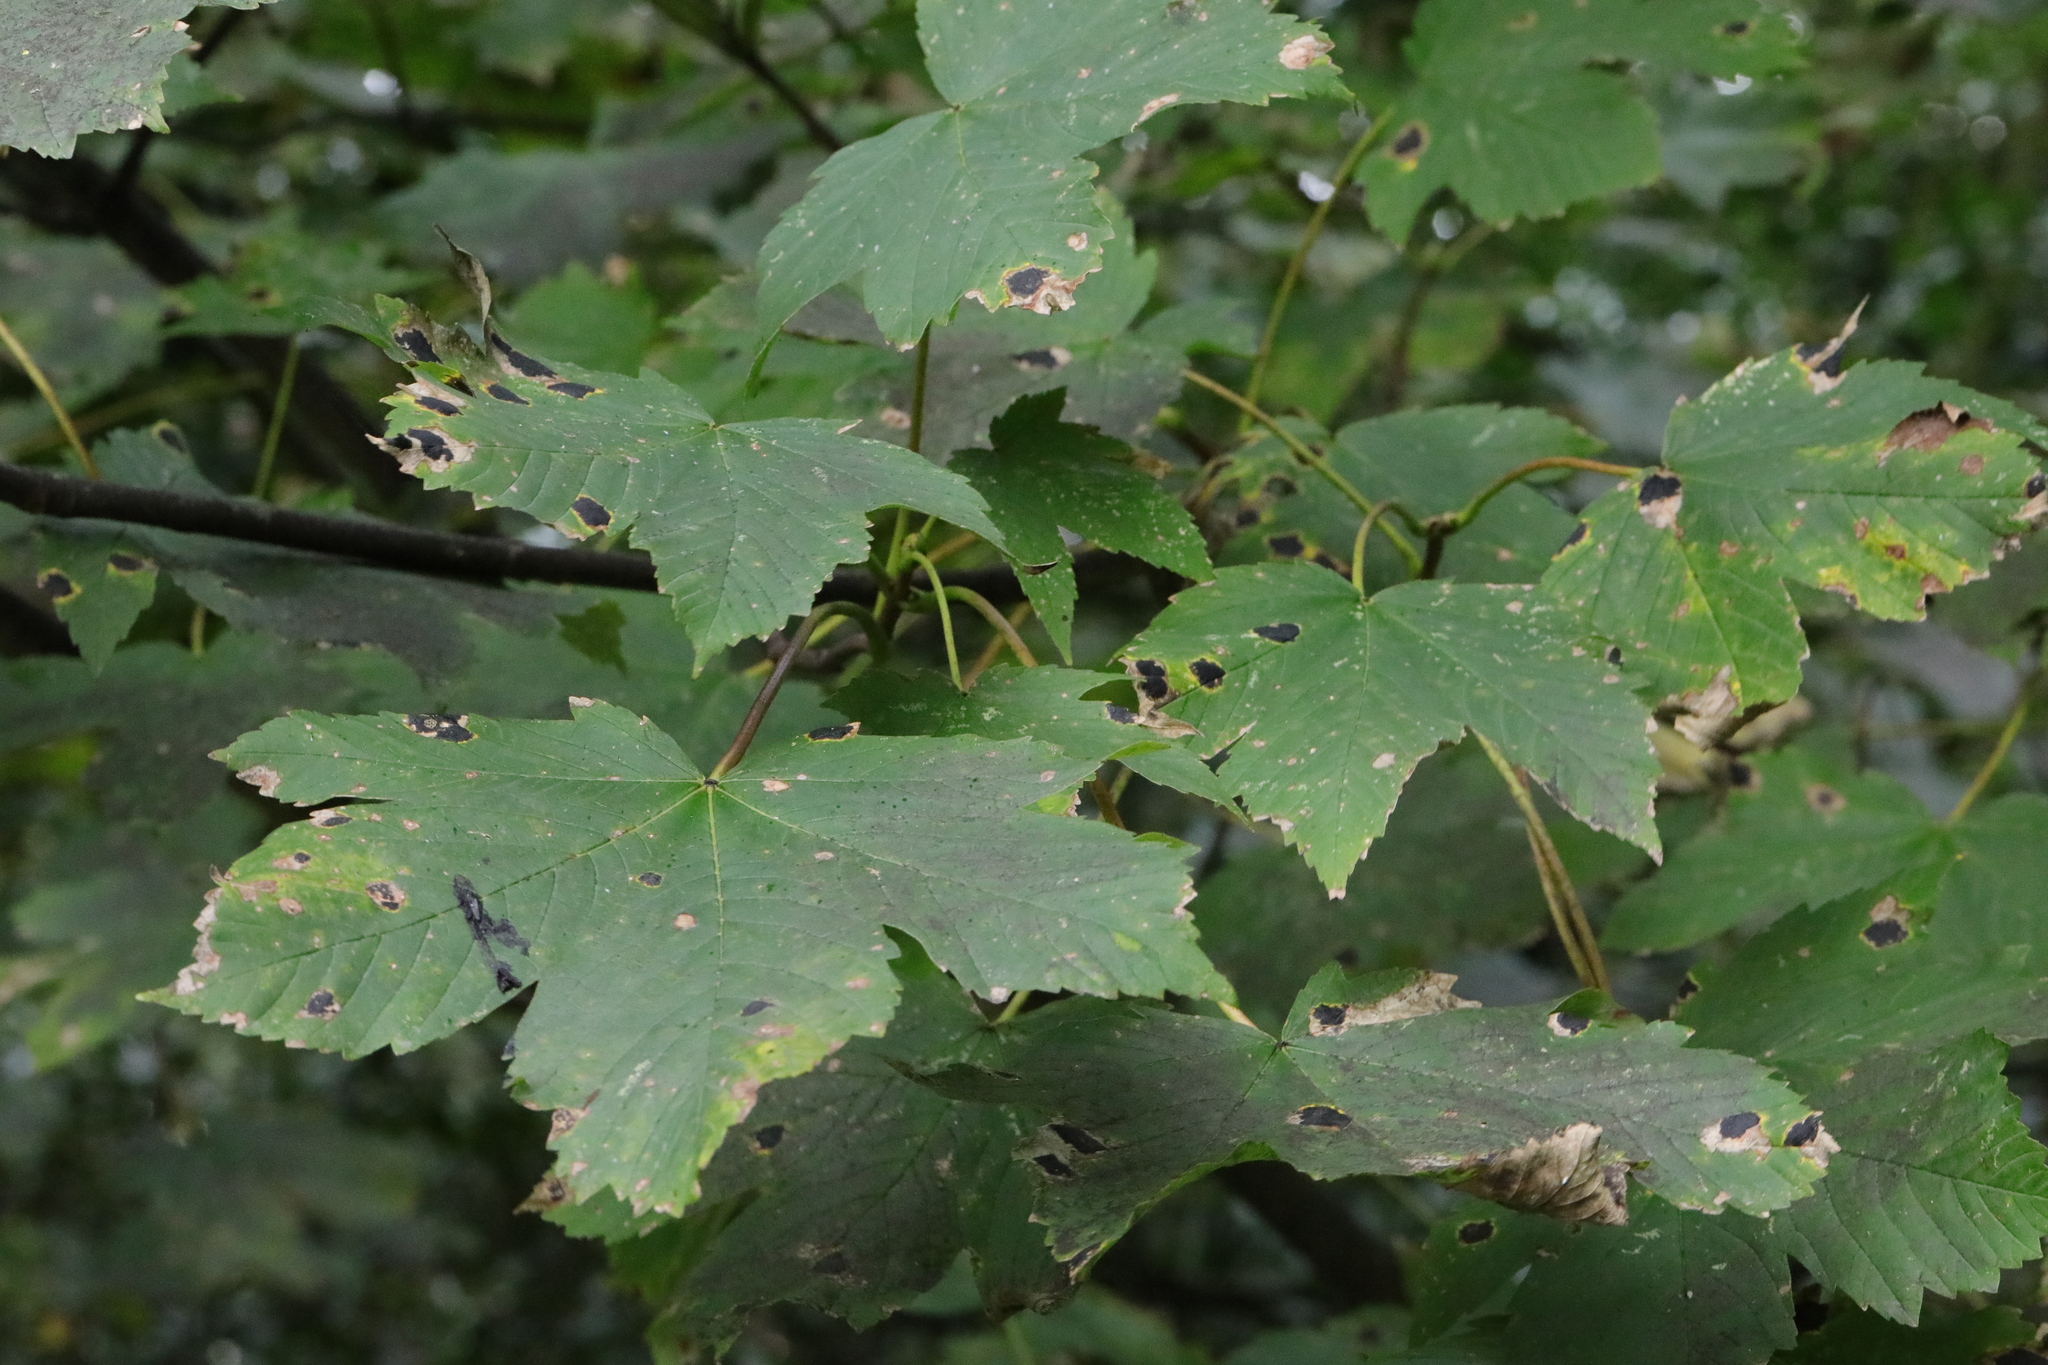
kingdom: Plantae
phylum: Tracheophyta
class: Magnoliopsida
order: Sapindales
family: Sapindaceae
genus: Acer
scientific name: Acer pseudoplatanus
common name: Sycamore
